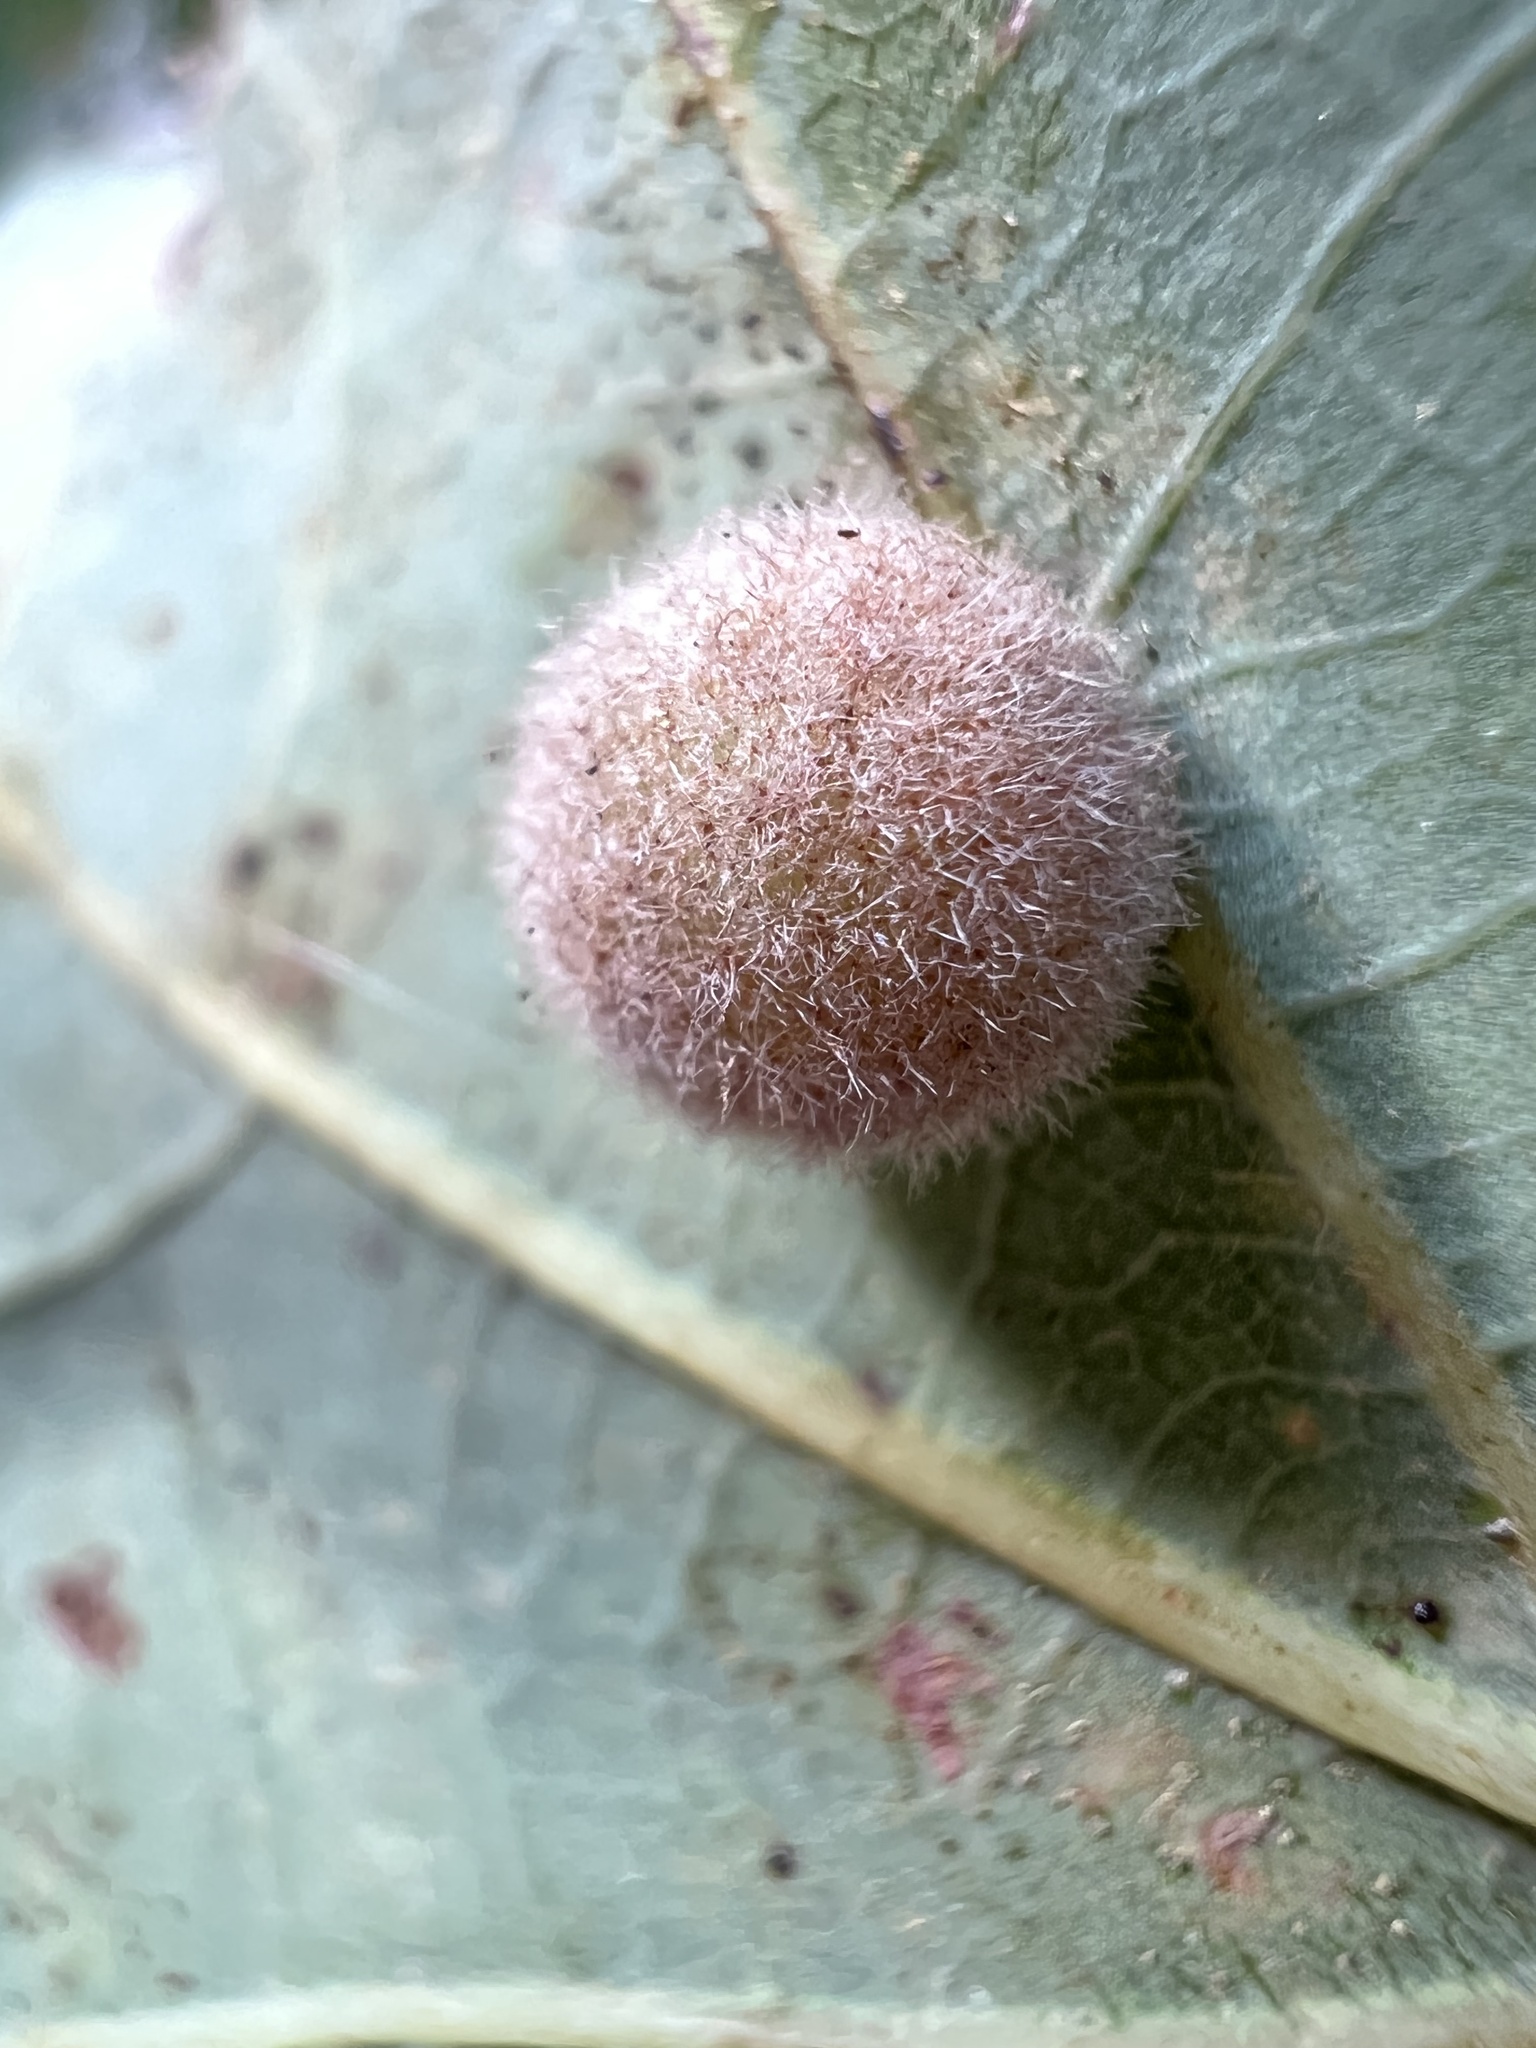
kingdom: Animalia
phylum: Arthropoda
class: Insecta
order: Hymenoptera
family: Cynipidae
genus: Philonix
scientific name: Philonix fulvicollis
